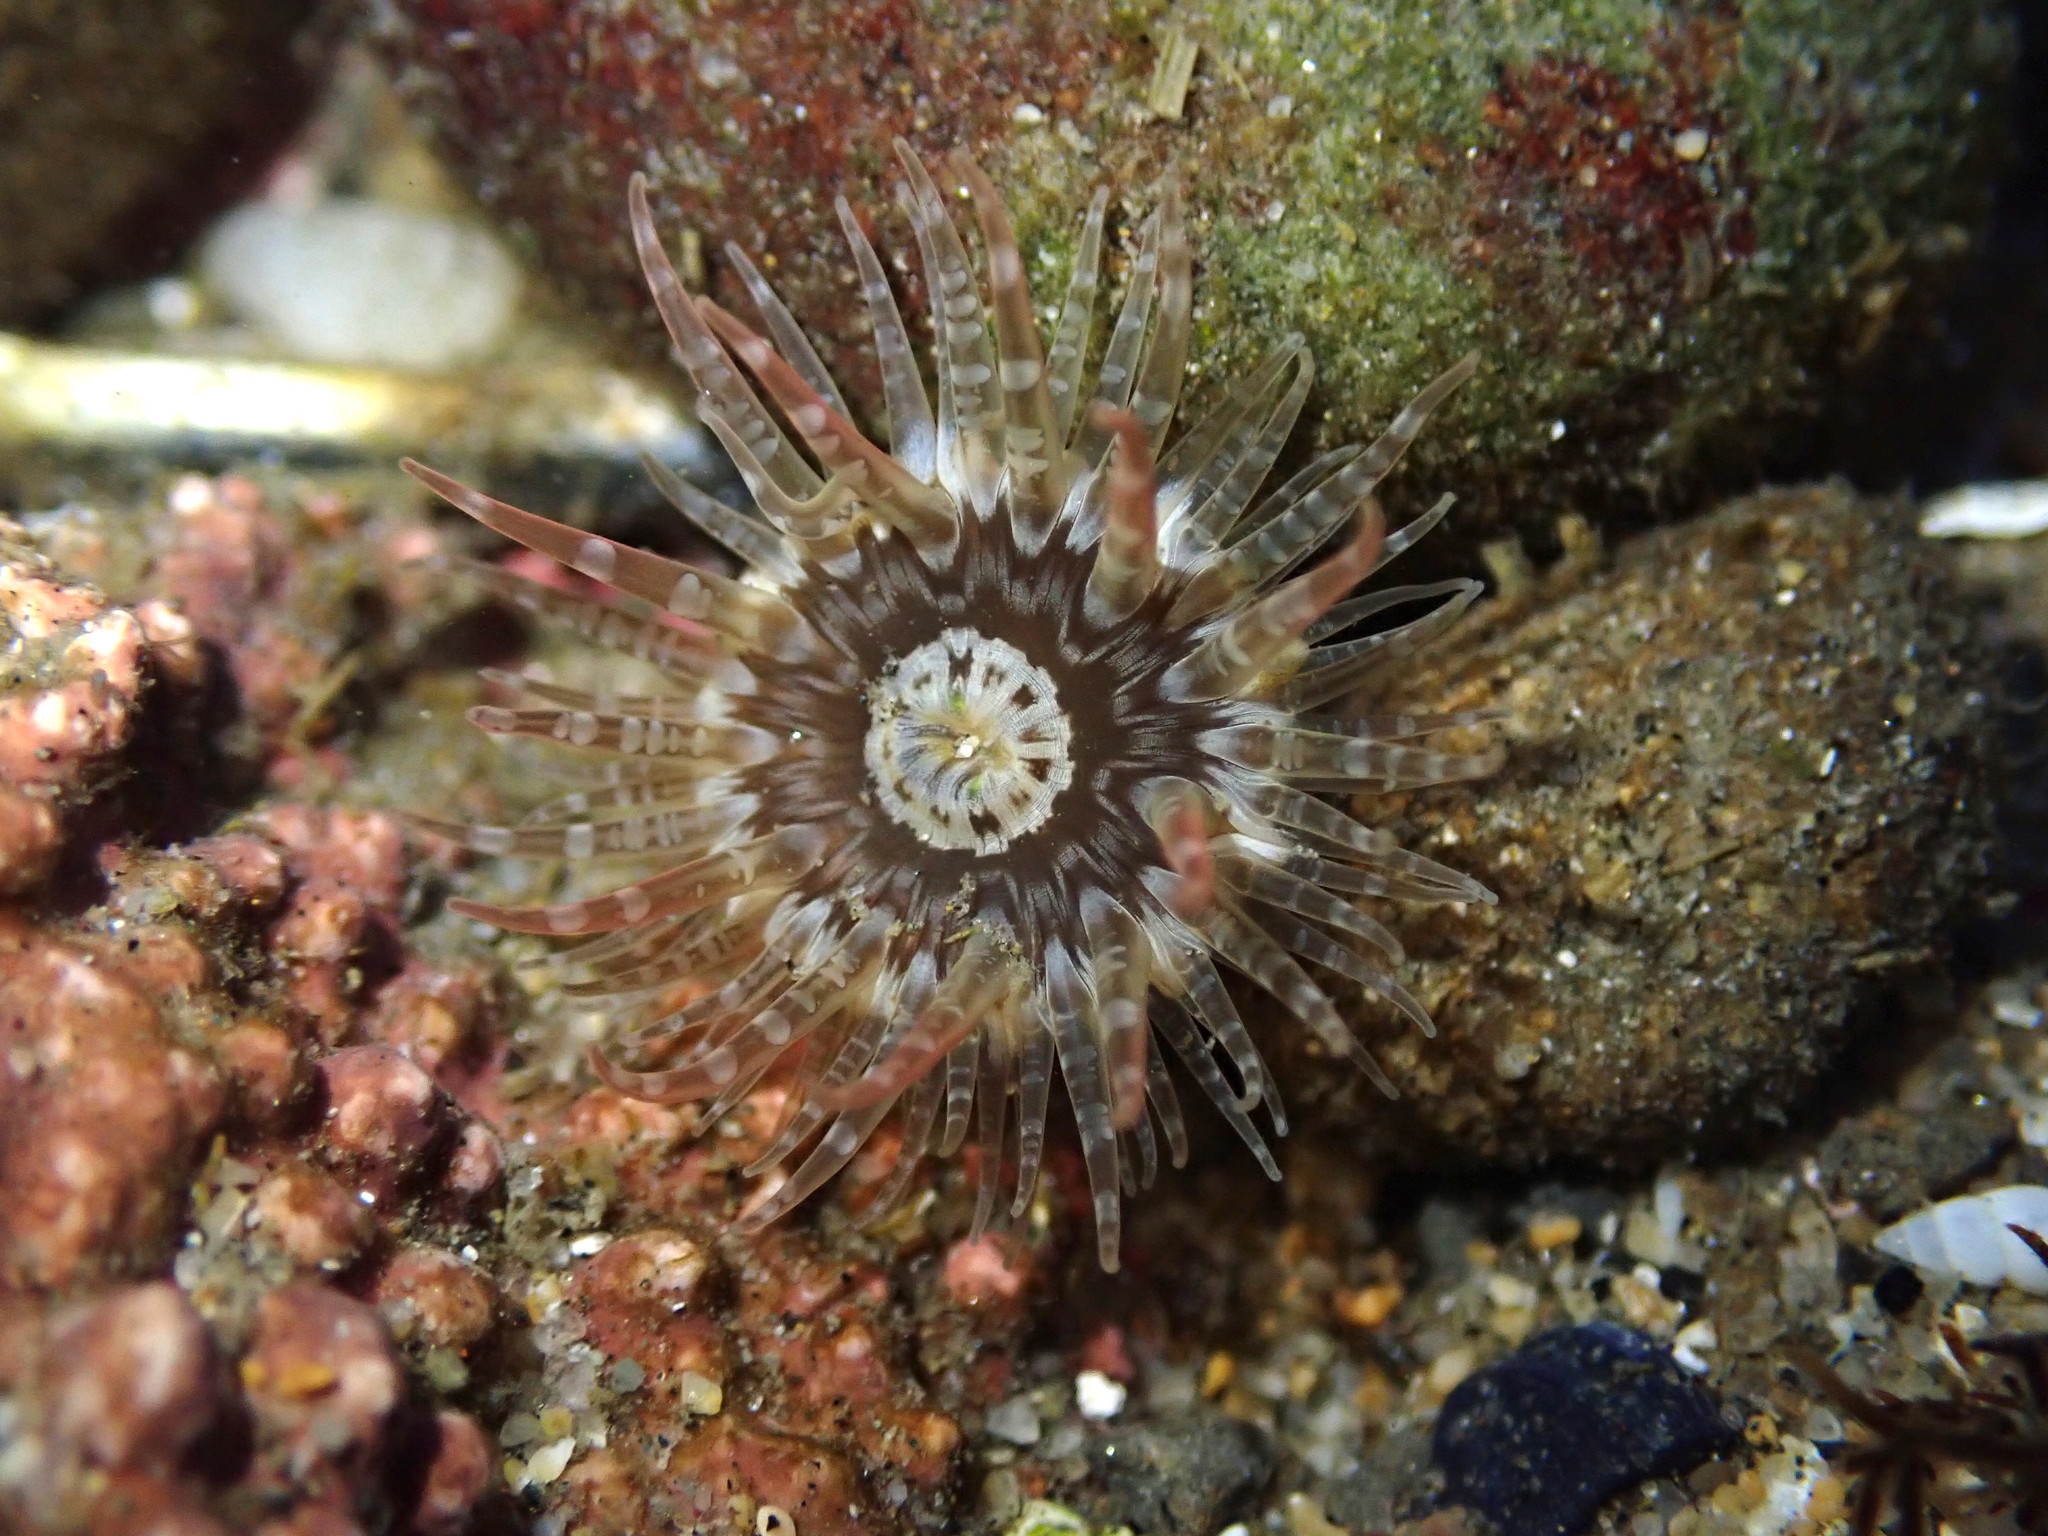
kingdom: Animalia
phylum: Cnidaria
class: Anthozoa
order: Actiniaria
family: Actiniidae
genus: Anthopleura
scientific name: Anthopleura artemisia
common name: Buried sea anemone
